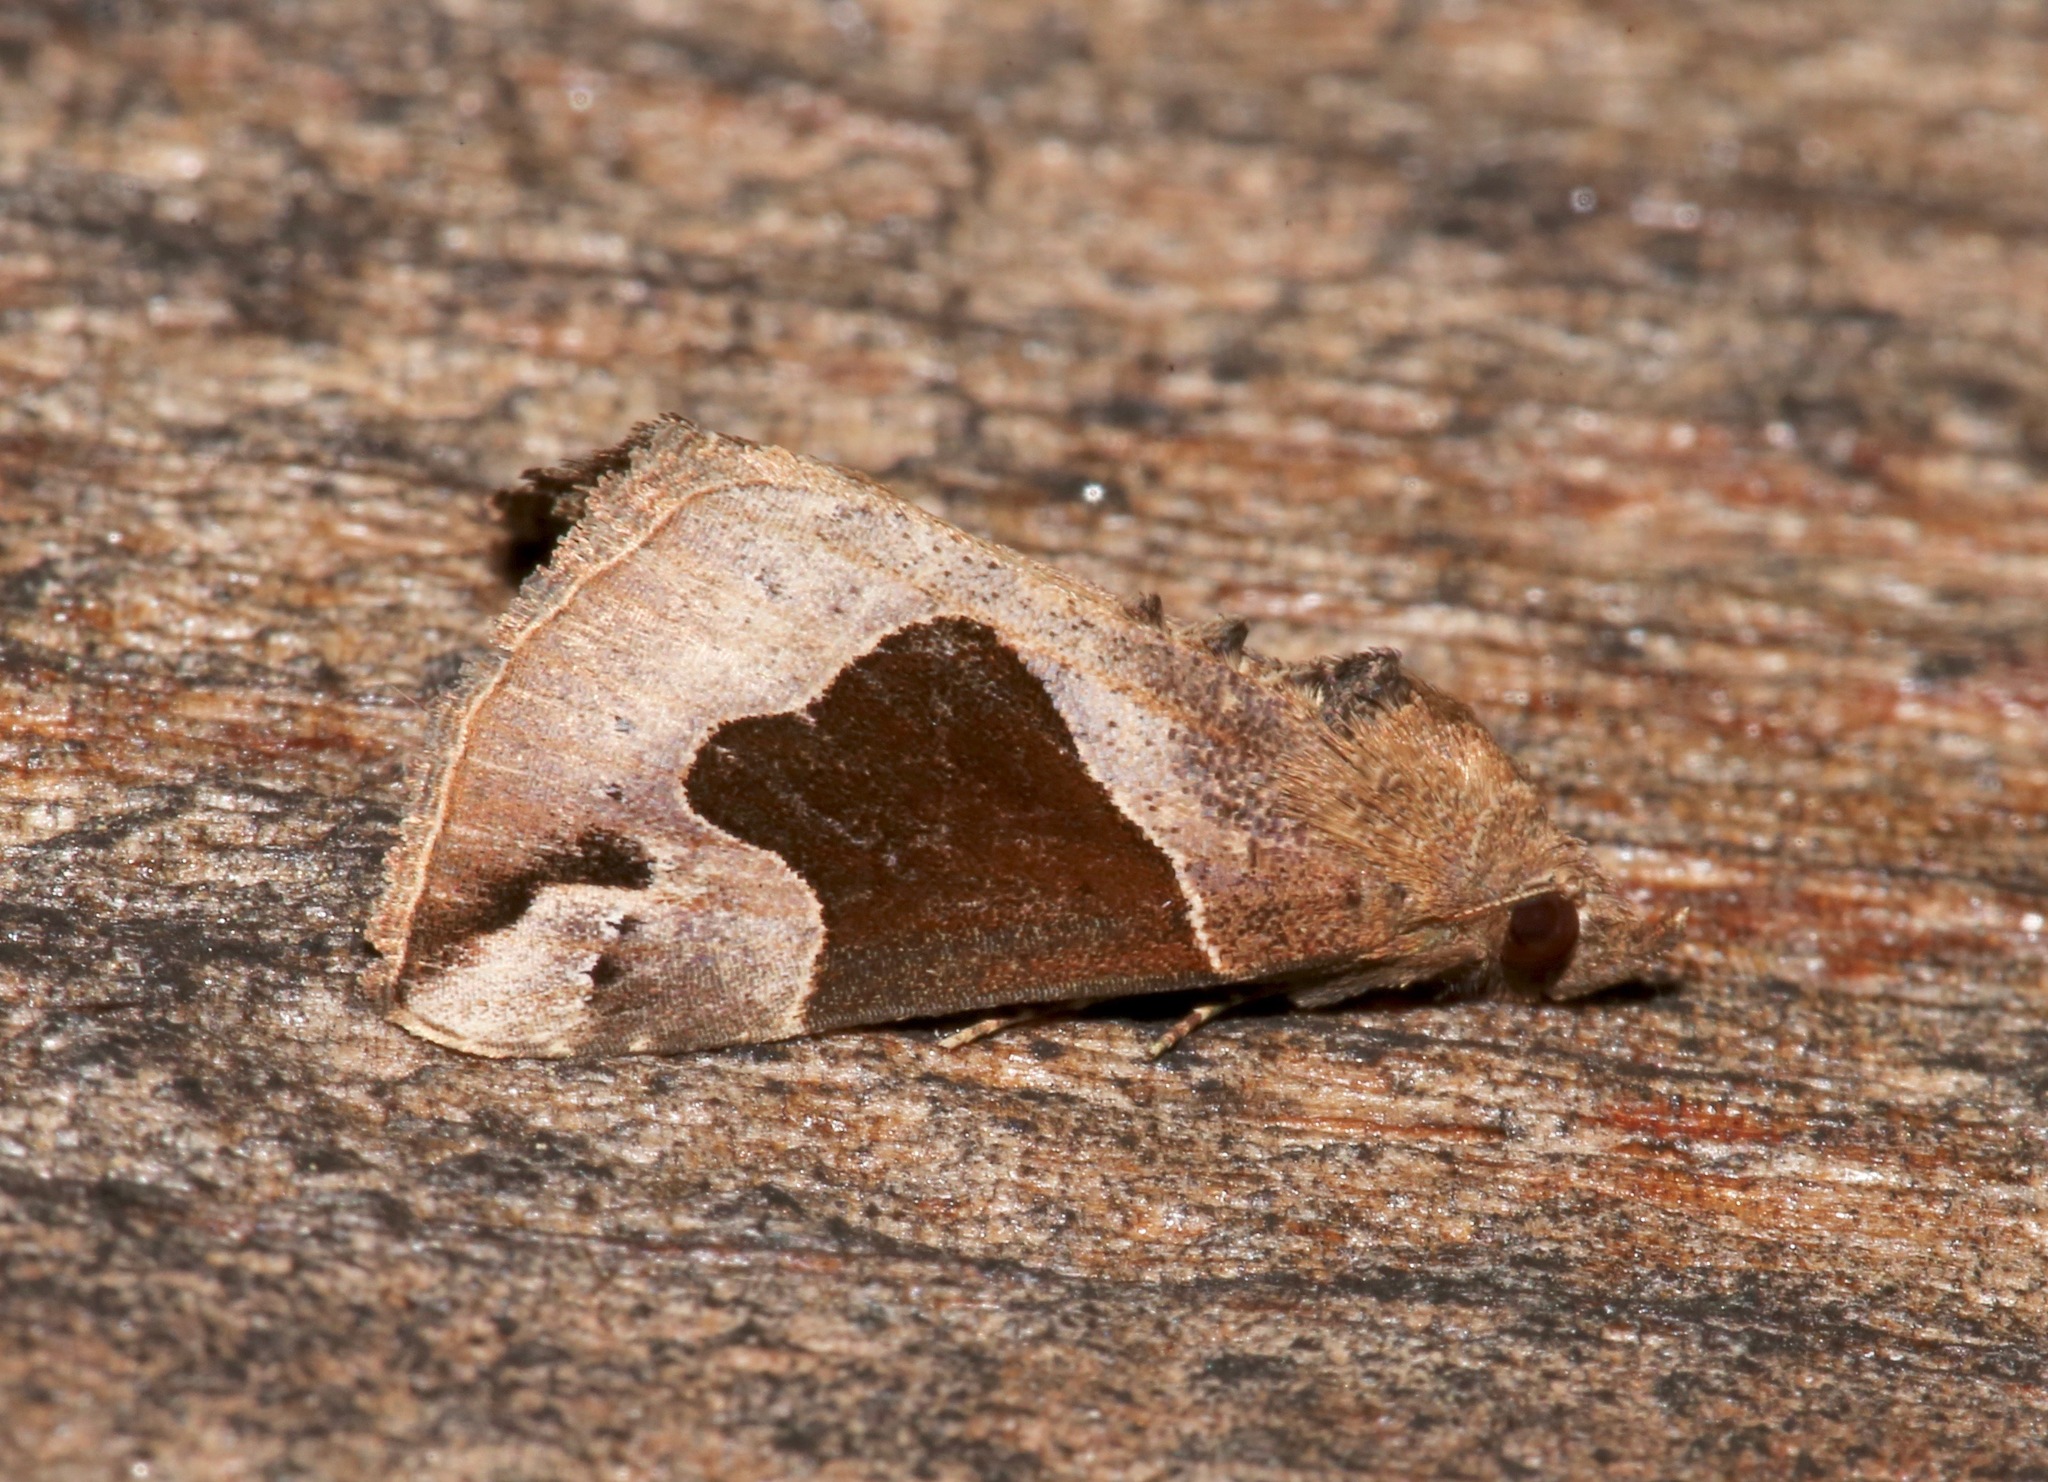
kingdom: Animalia
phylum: Arthropoda
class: Insecta
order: Lepidoptera
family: Erebidae
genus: Hypena
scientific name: Hypena manalis
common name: Flowing-line bomolocha moth
